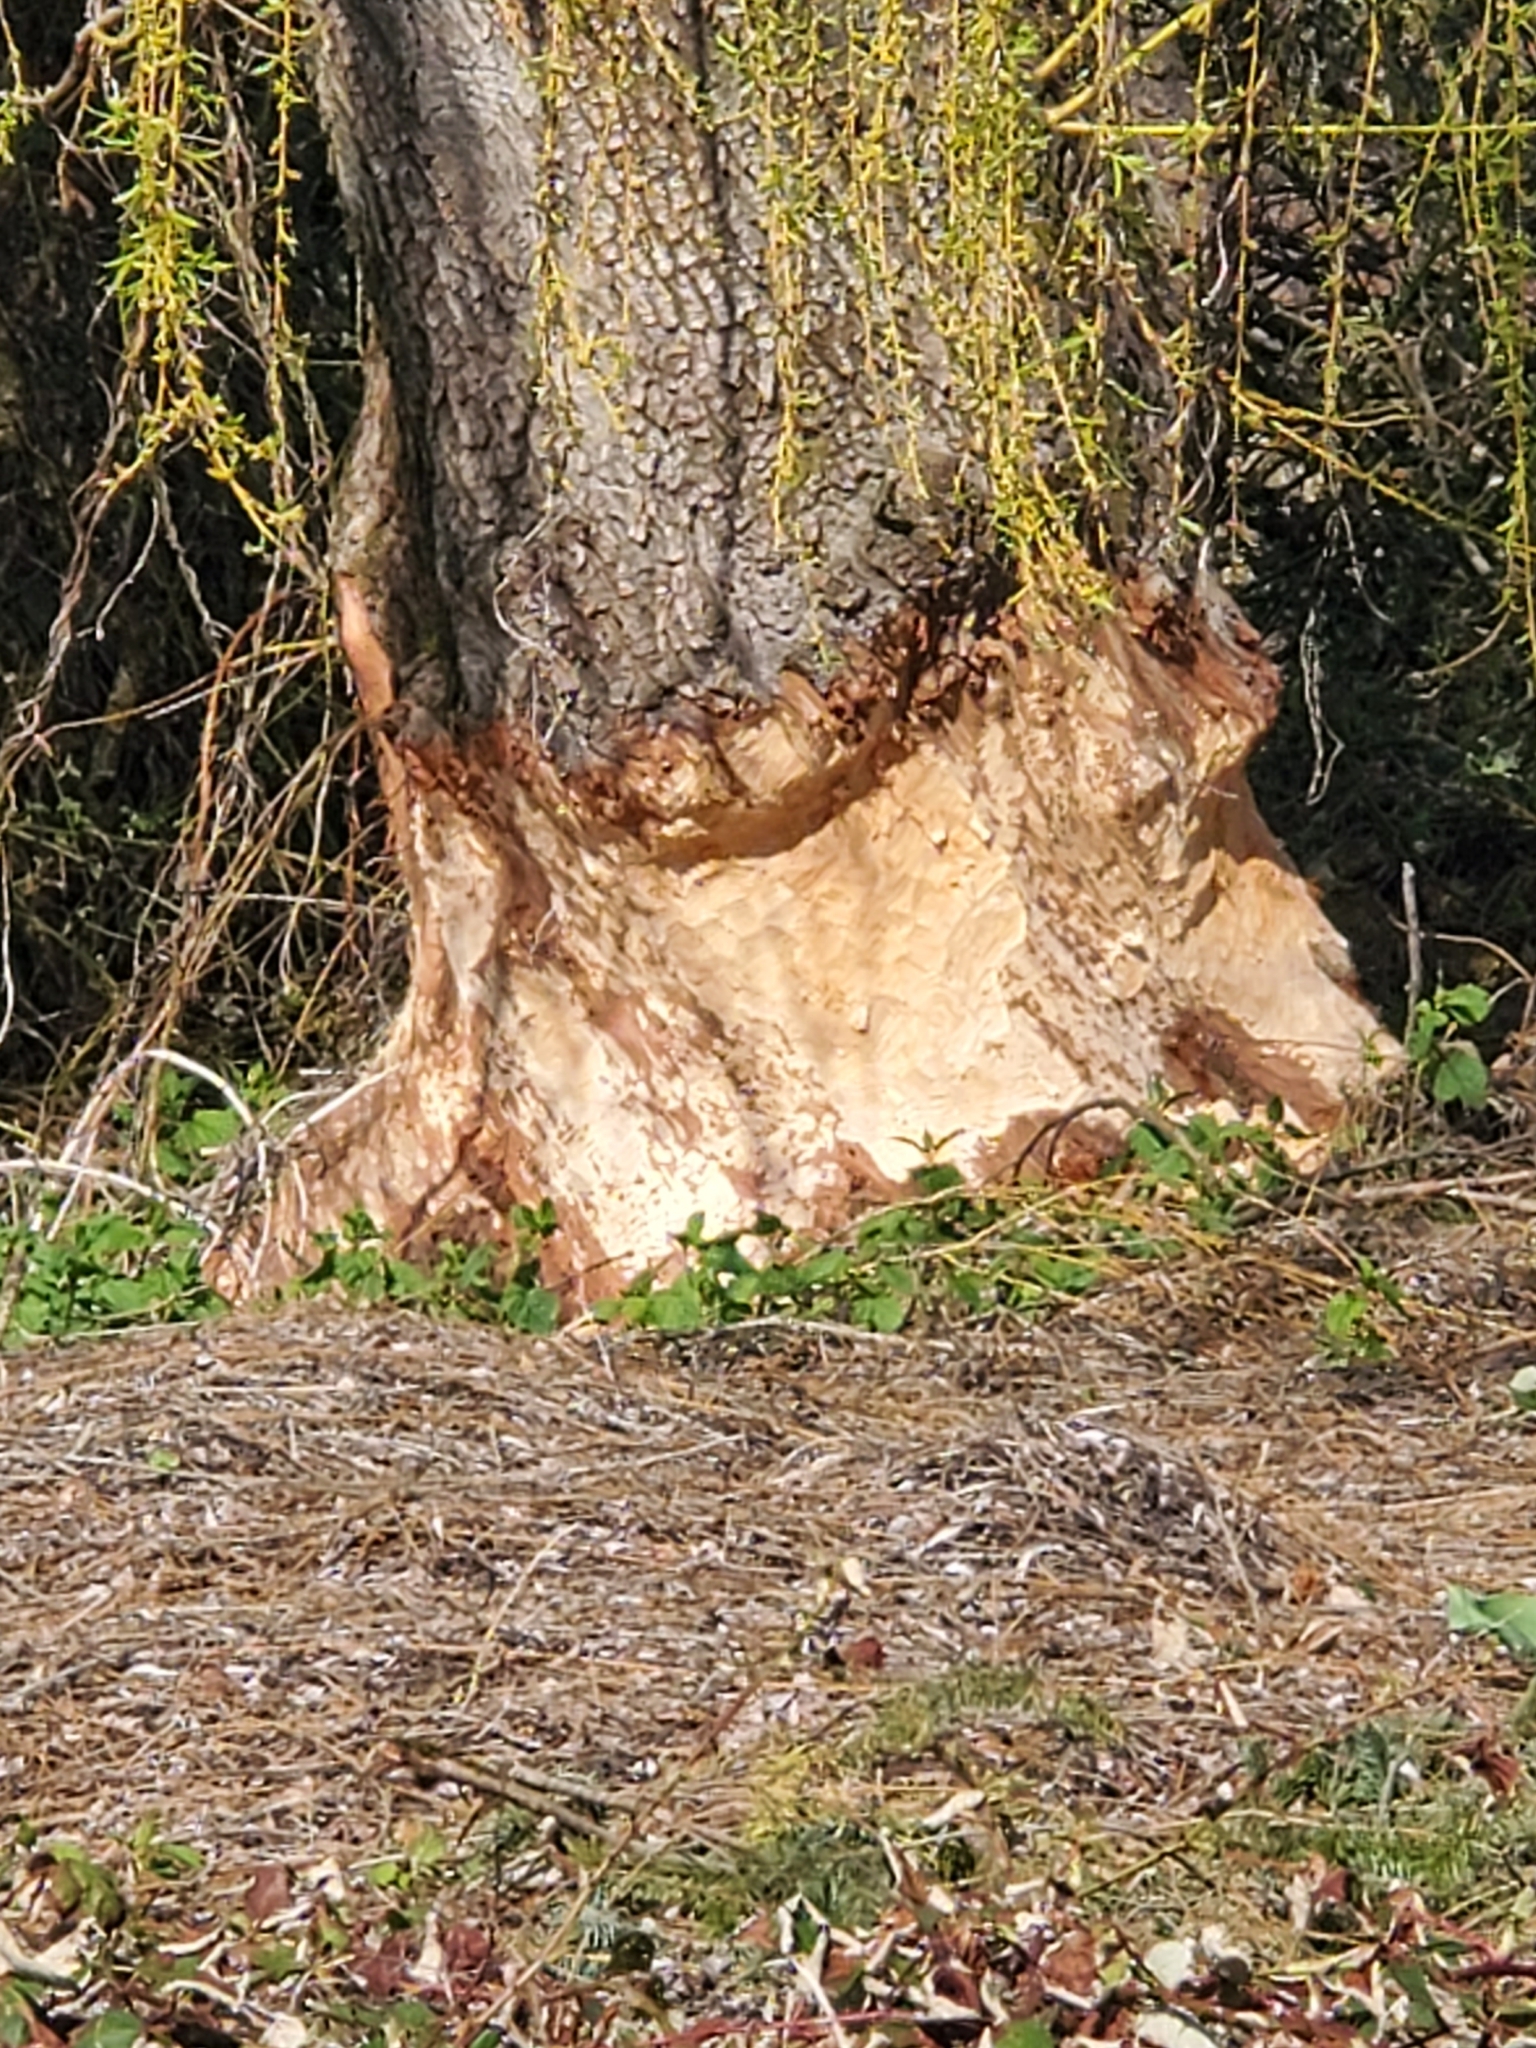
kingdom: Animalia
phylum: Chordata
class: Mammalia
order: Rodentia
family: Castoridae
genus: Castor
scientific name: Castor canadensis
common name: American beaver
